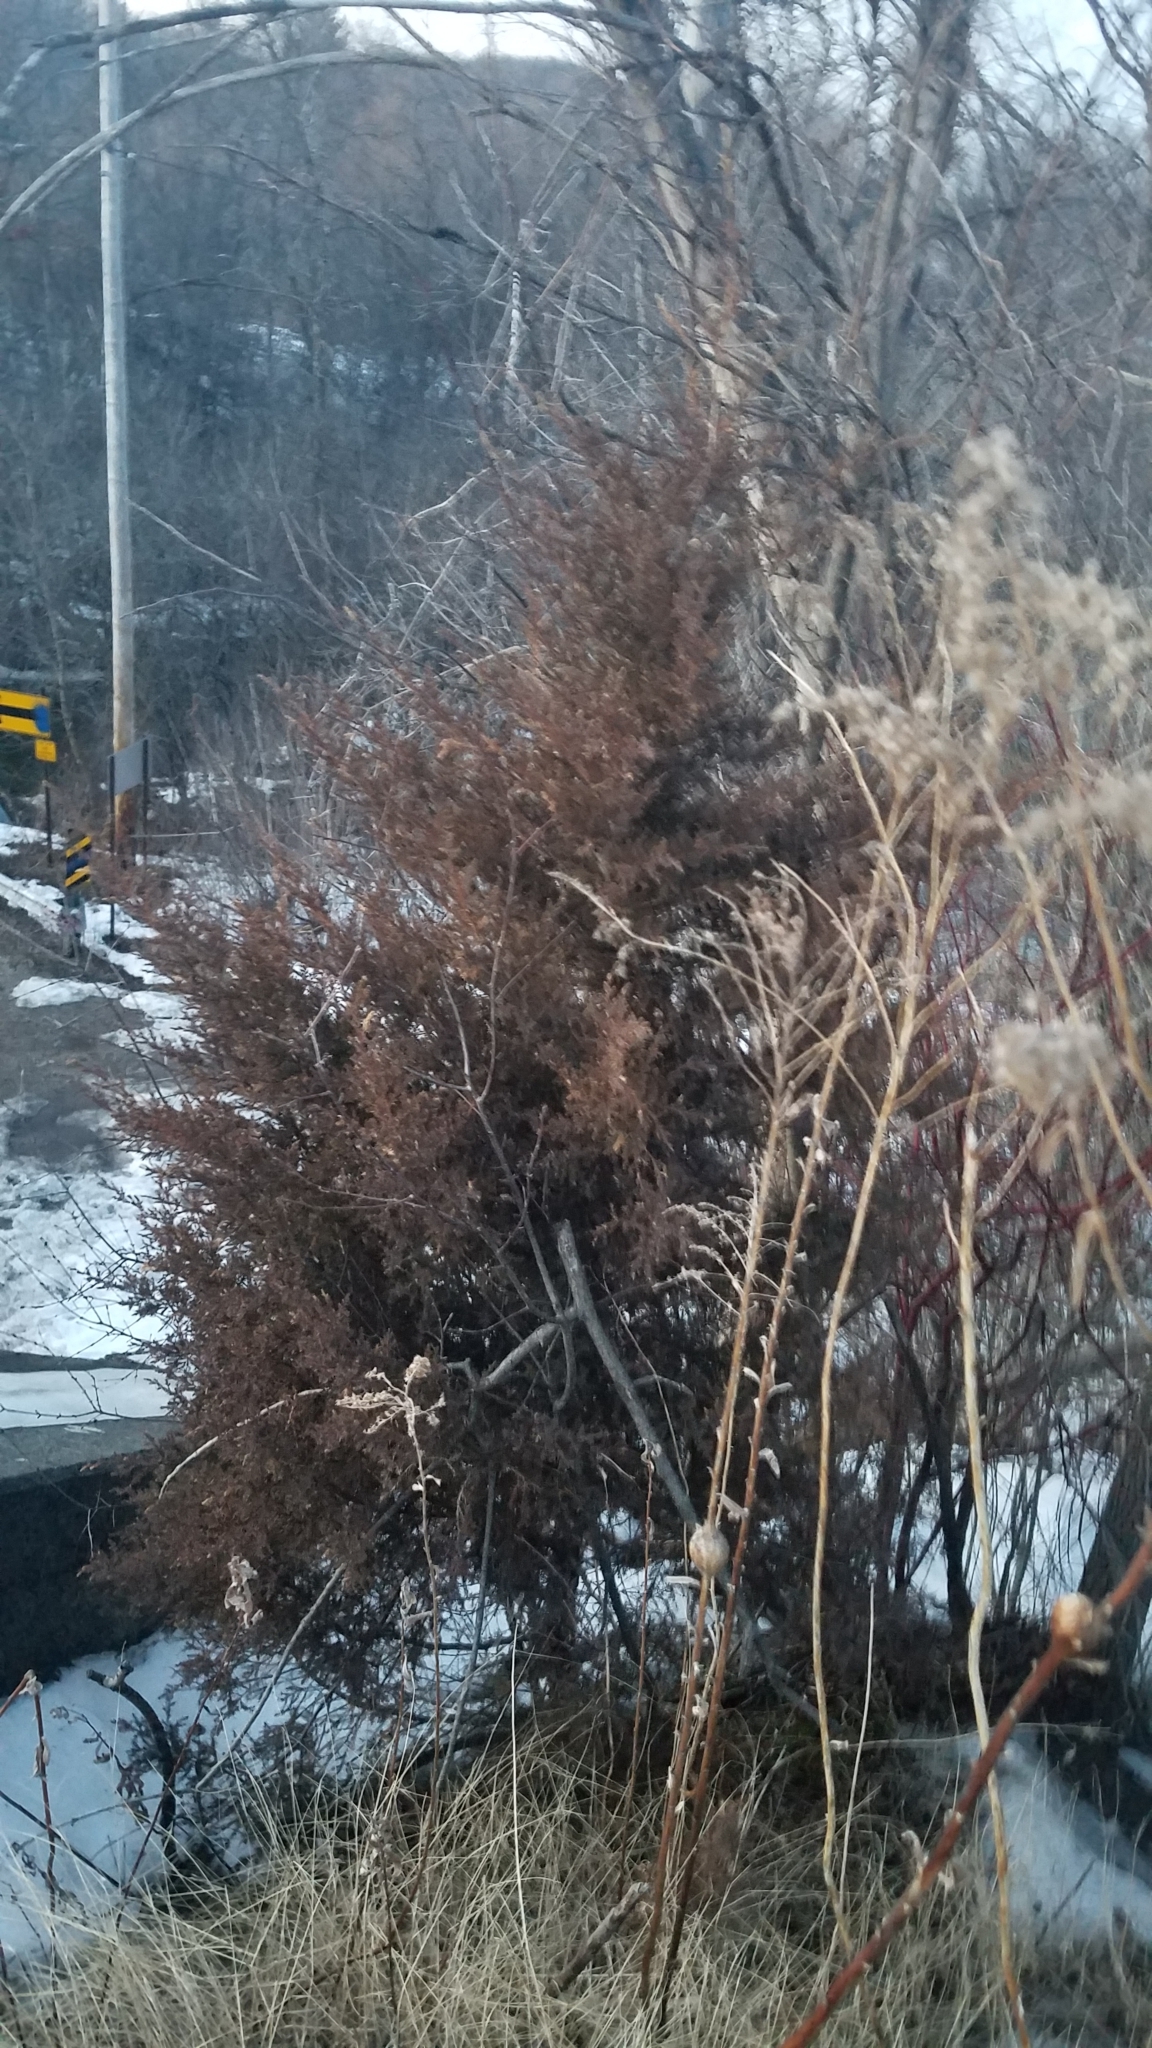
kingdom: Plantae
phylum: Tracheophyta
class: Pinopsida
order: Pinales
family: Cupressaceae
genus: Juniperus
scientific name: Juniperus virginiana
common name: Red juniper
